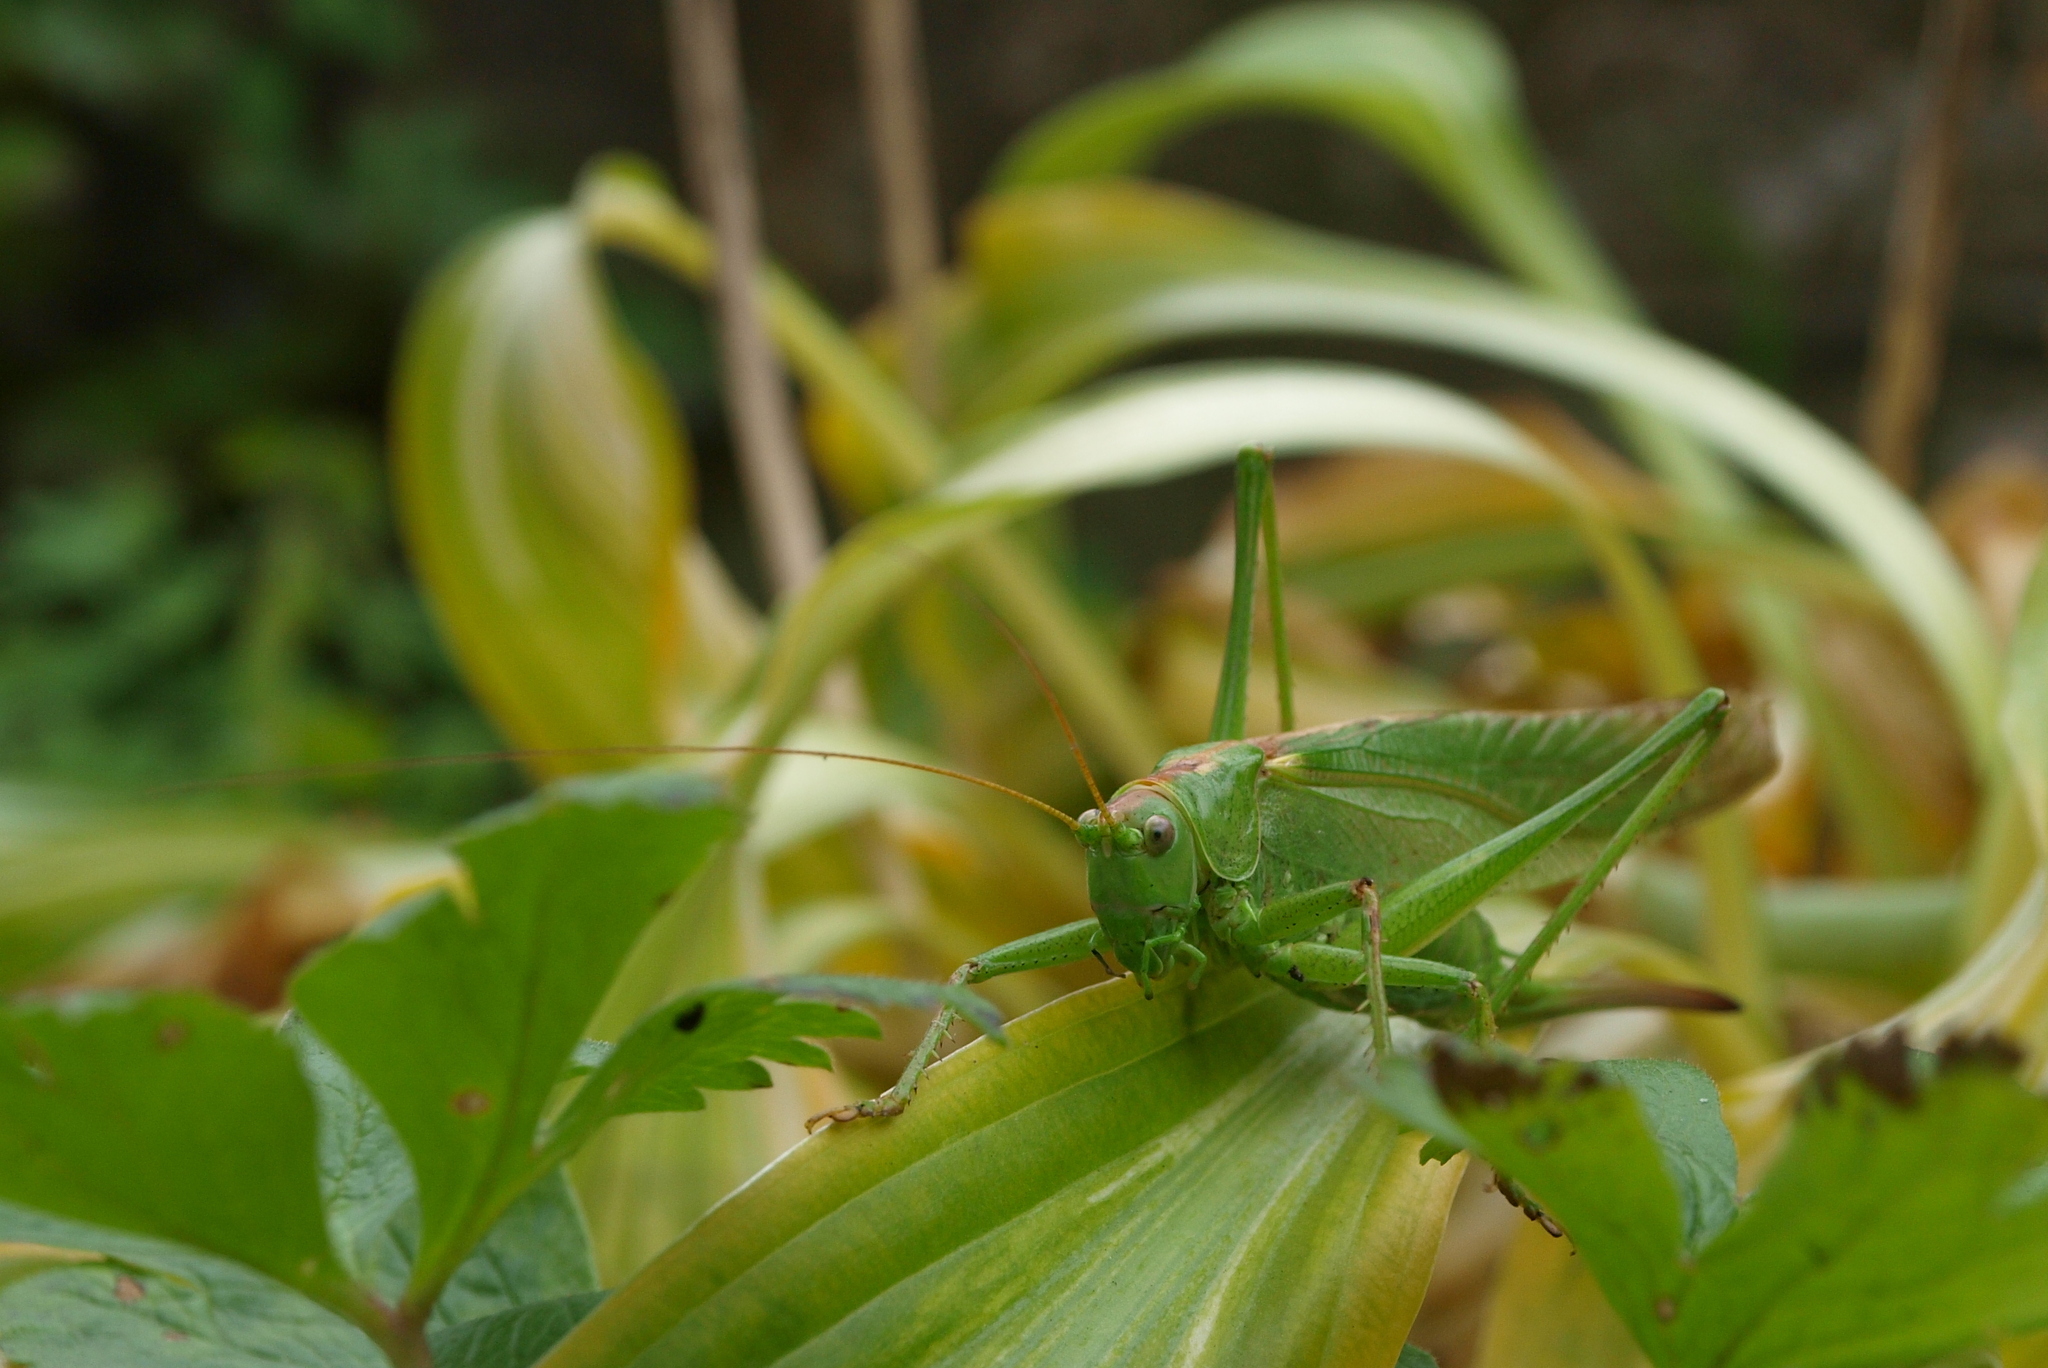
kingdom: Animalia
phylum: Arthropoda
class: Insecta
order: Orthoptera
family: Tettigoniidae
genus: Tettigonia
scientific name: Tettigonia viridissima
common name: Great green bush-cricket
